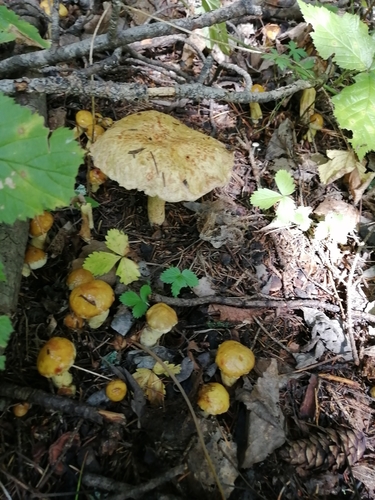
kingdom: Fungi
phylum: Basidiomycota
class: Agaricomycetes
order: Boletales
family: Suillaceae
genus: Suillus
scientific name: Suillus americanus
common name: Chicken fat mushroom
